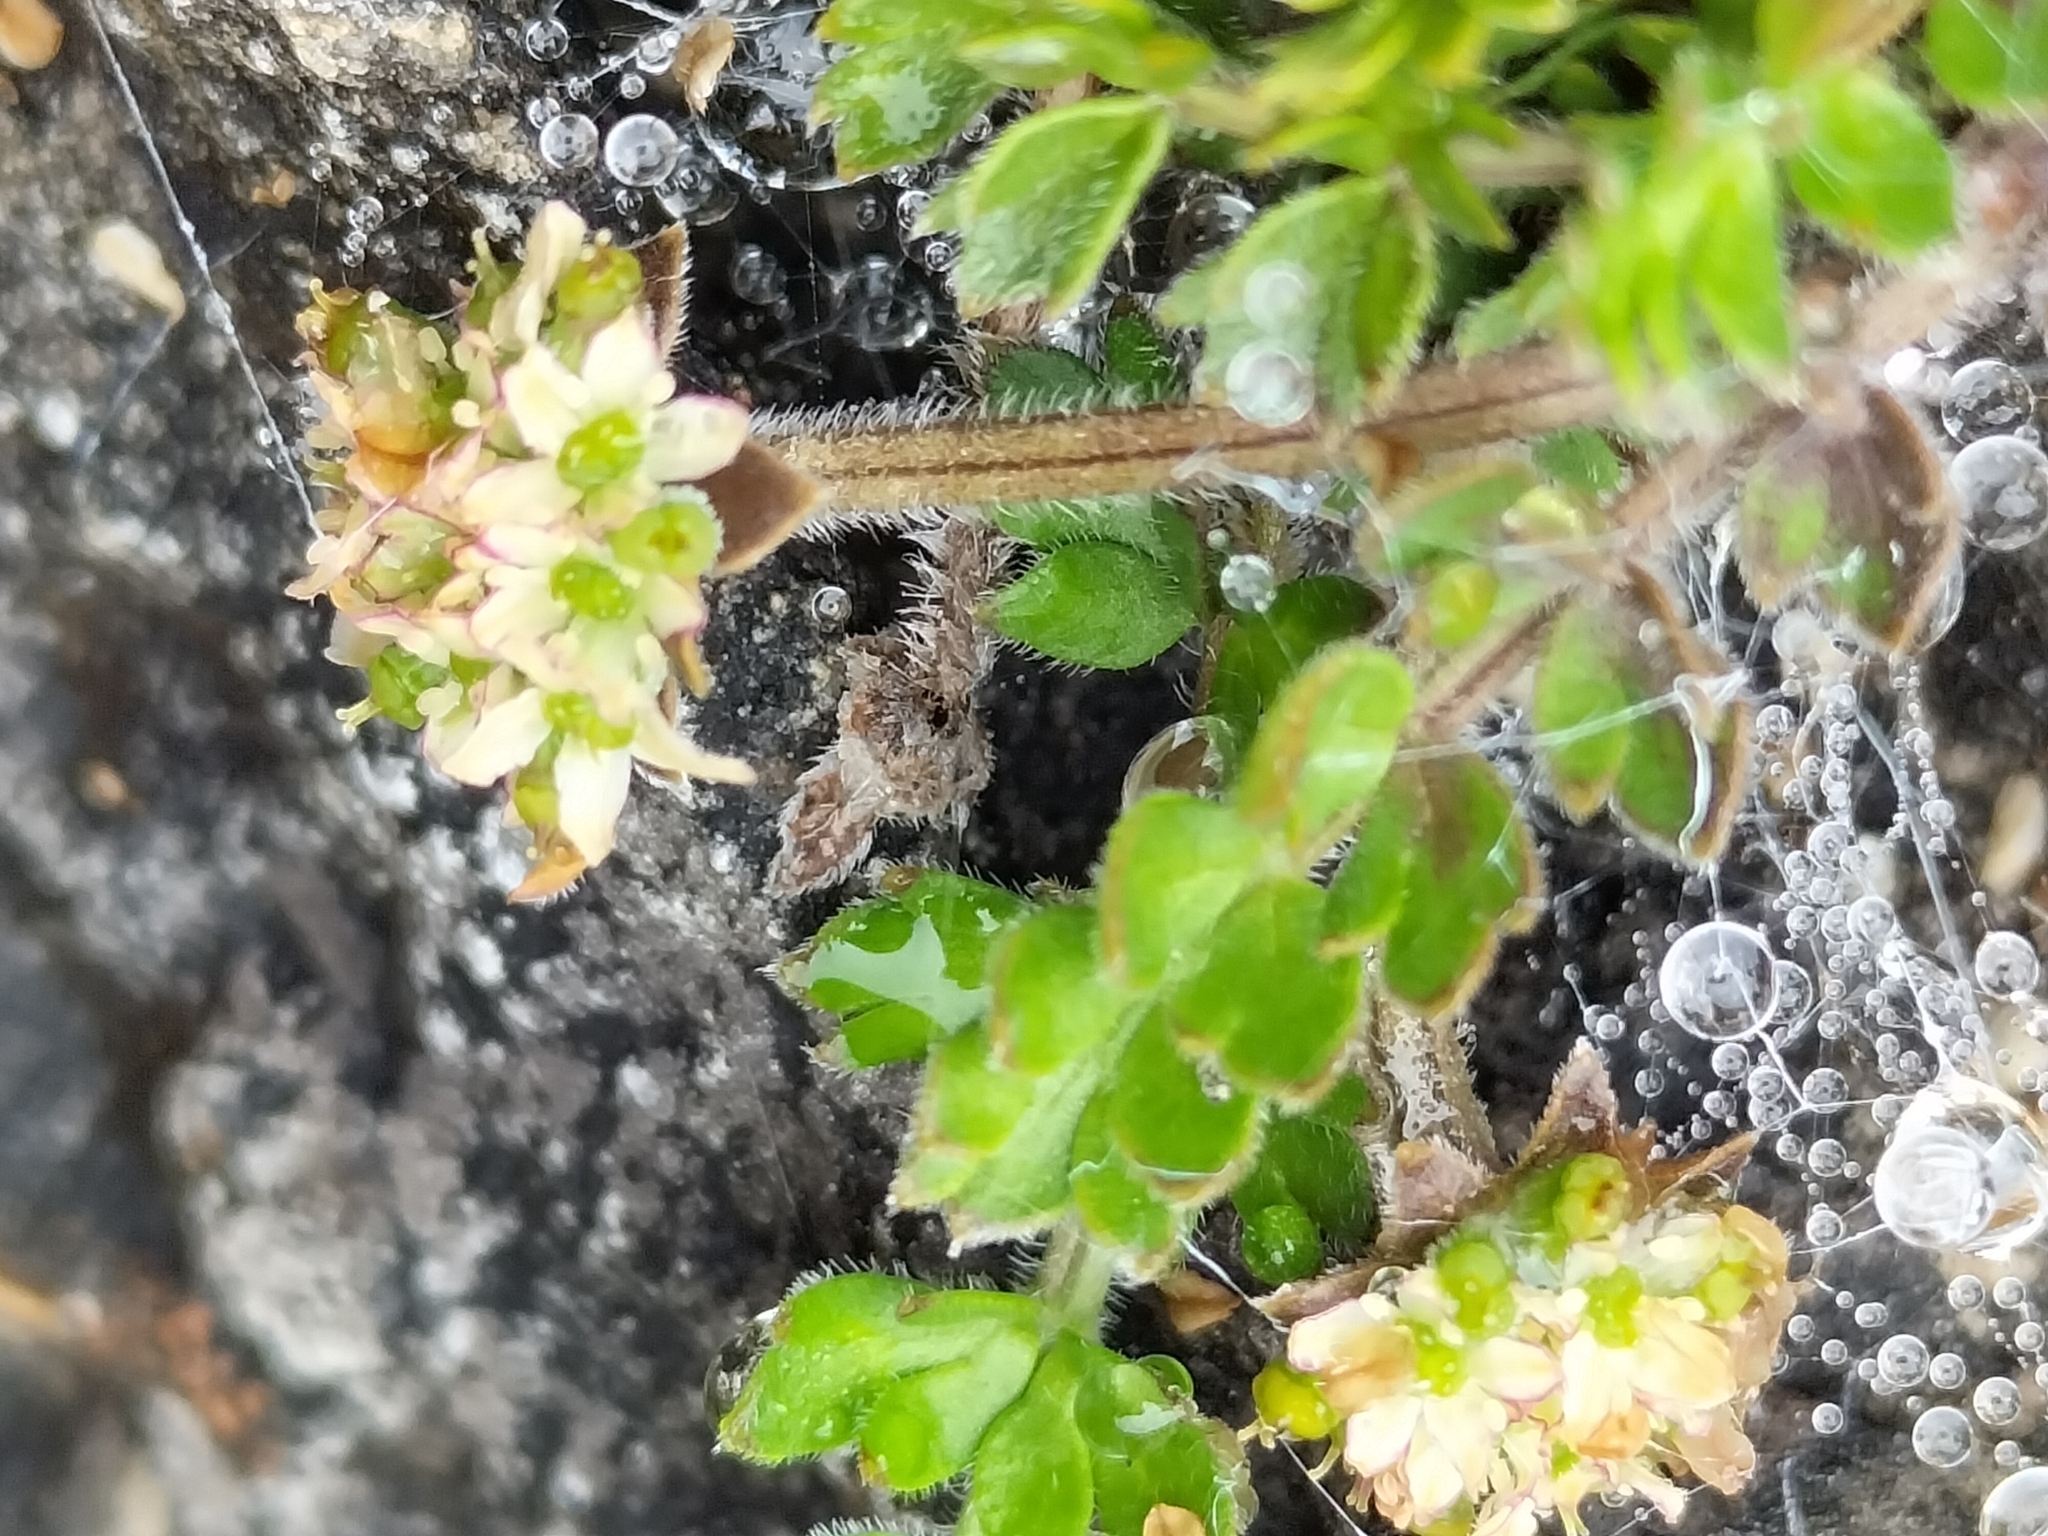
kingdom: Plantae
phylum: Tracheophyta
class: Magnoliopsida
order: Apiales
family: Apiaceae
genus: Chaerophyllum
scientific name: Chaerophyllum colensoi
